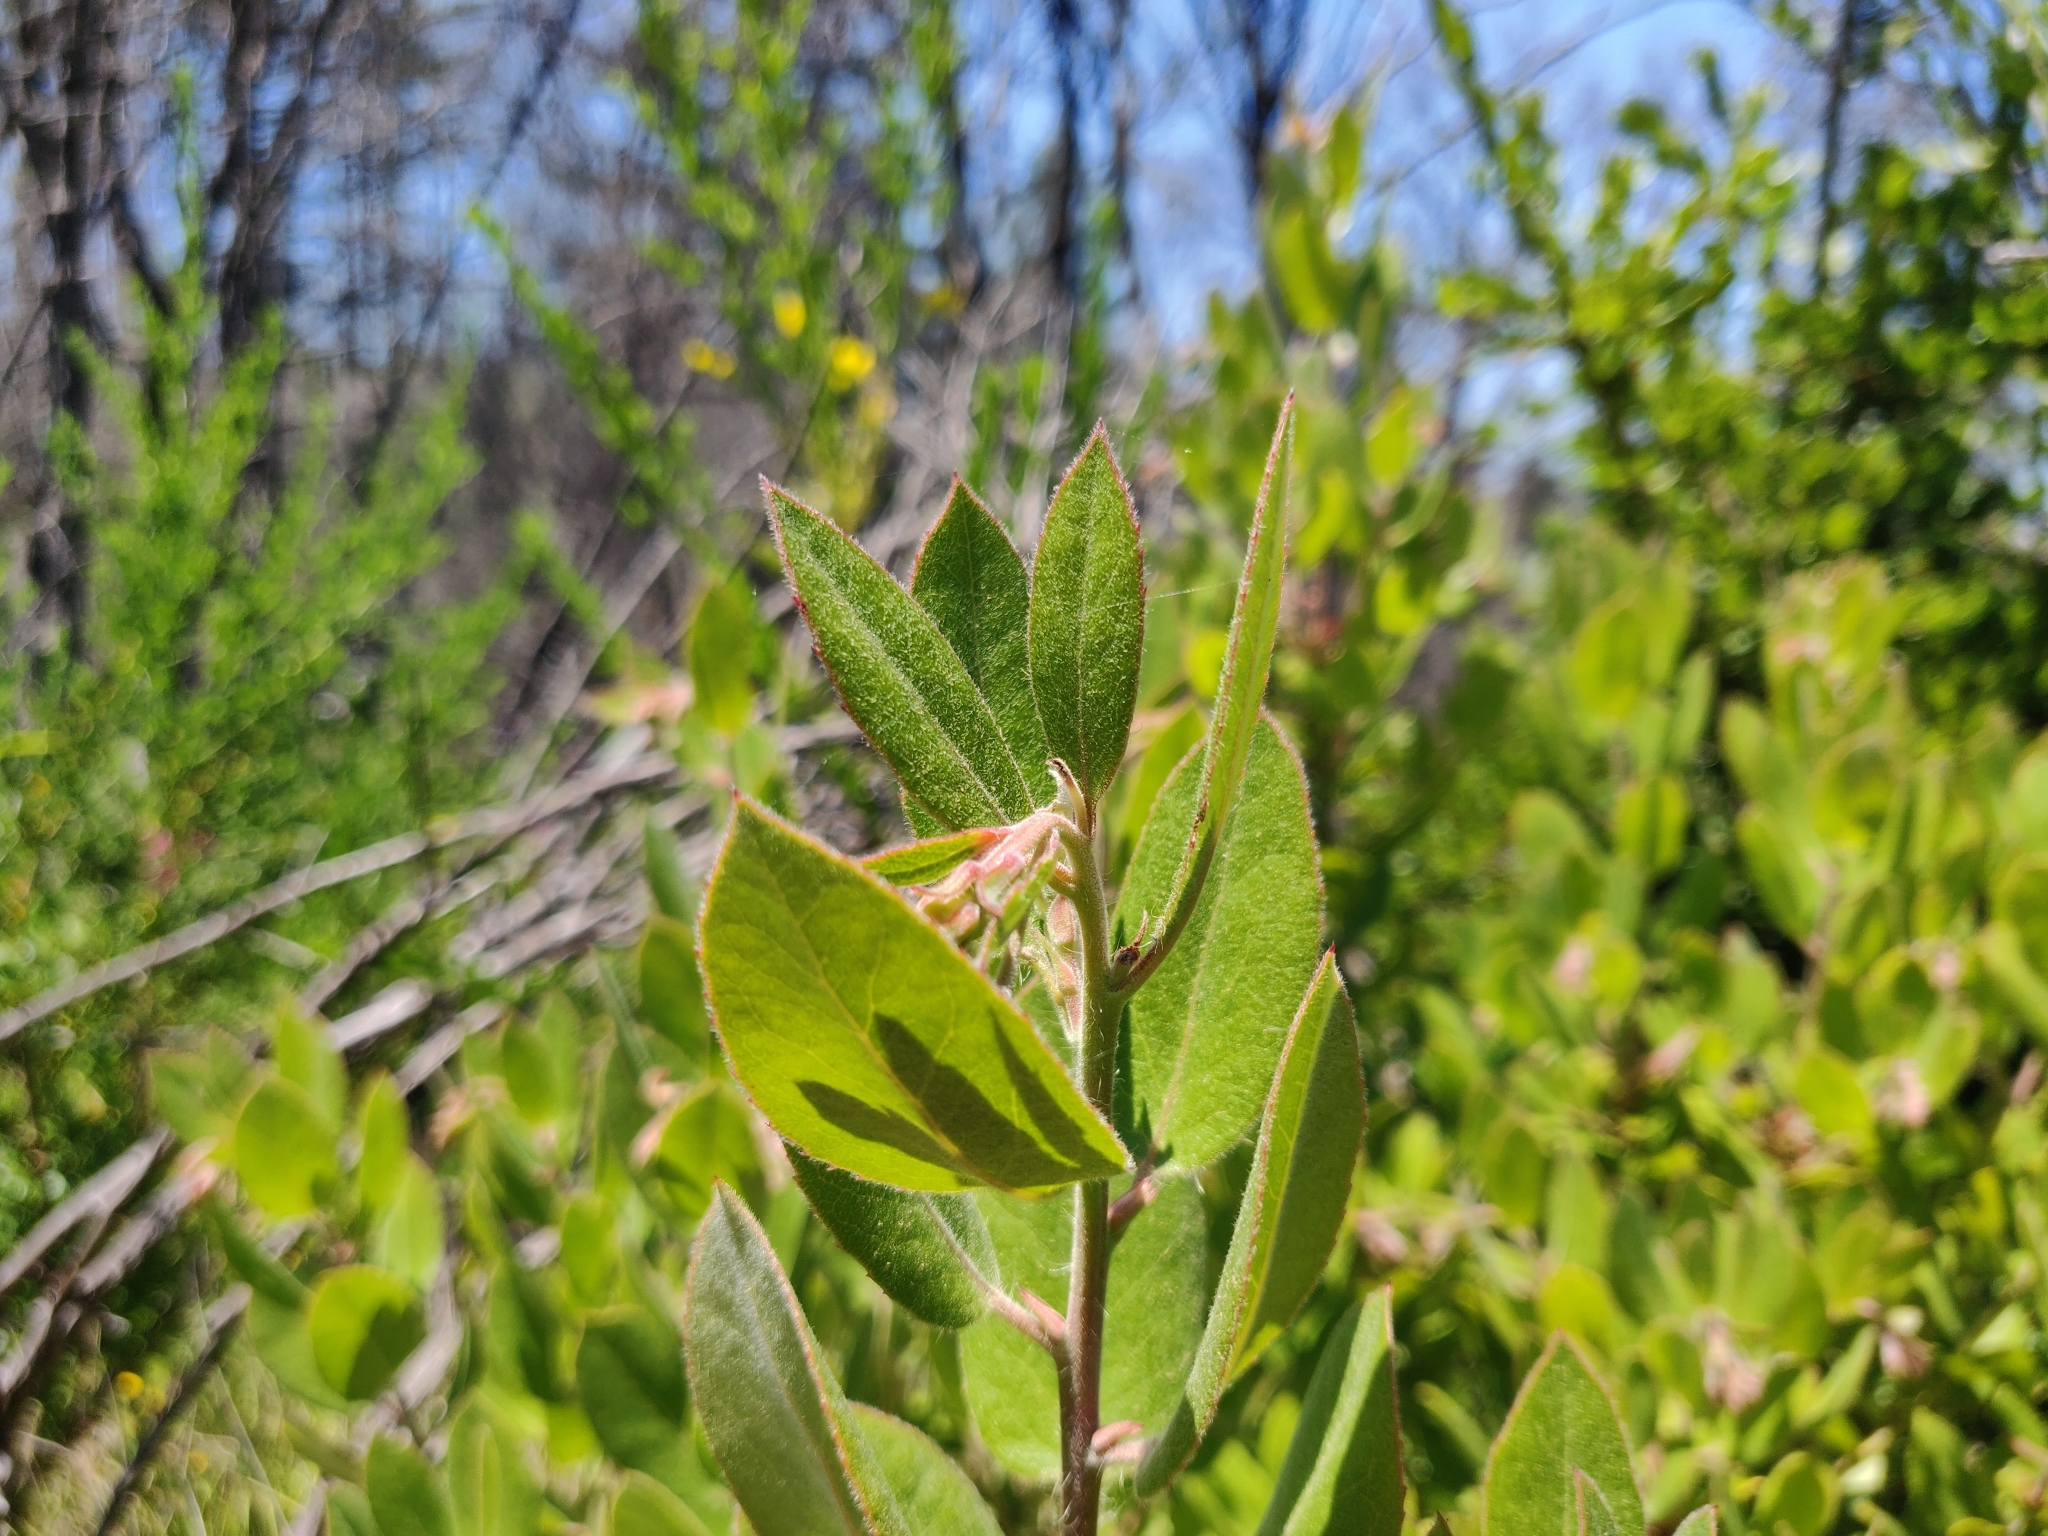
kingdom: Plantae
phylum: Tracheophyta
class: Magnoliopsida
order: Ericales
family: Ericaceae
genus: Arctostaphylos
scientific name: Arctostaphylos crustacea
